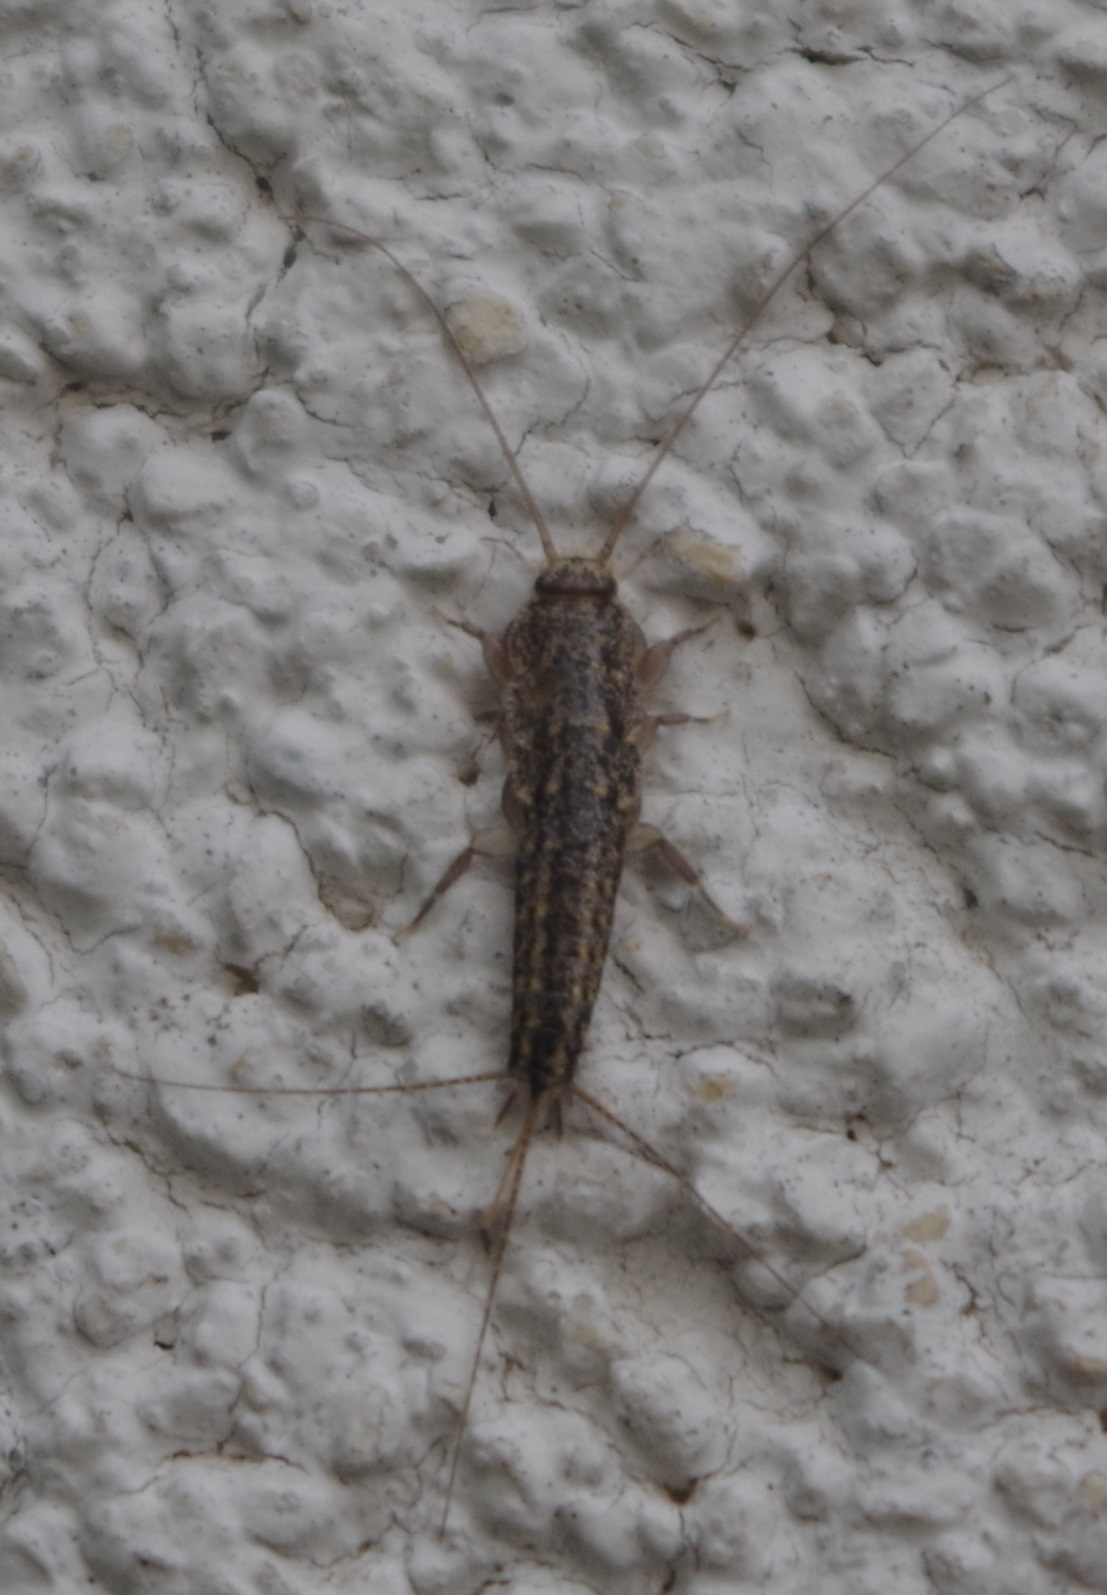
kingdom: Animalia
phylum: Arthropoda
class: Insecta
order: Zygentoma
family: Lepismatidae
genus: Ctenolepisma
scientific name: Ctenolepisma lineata
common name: Four-lined silverfish
